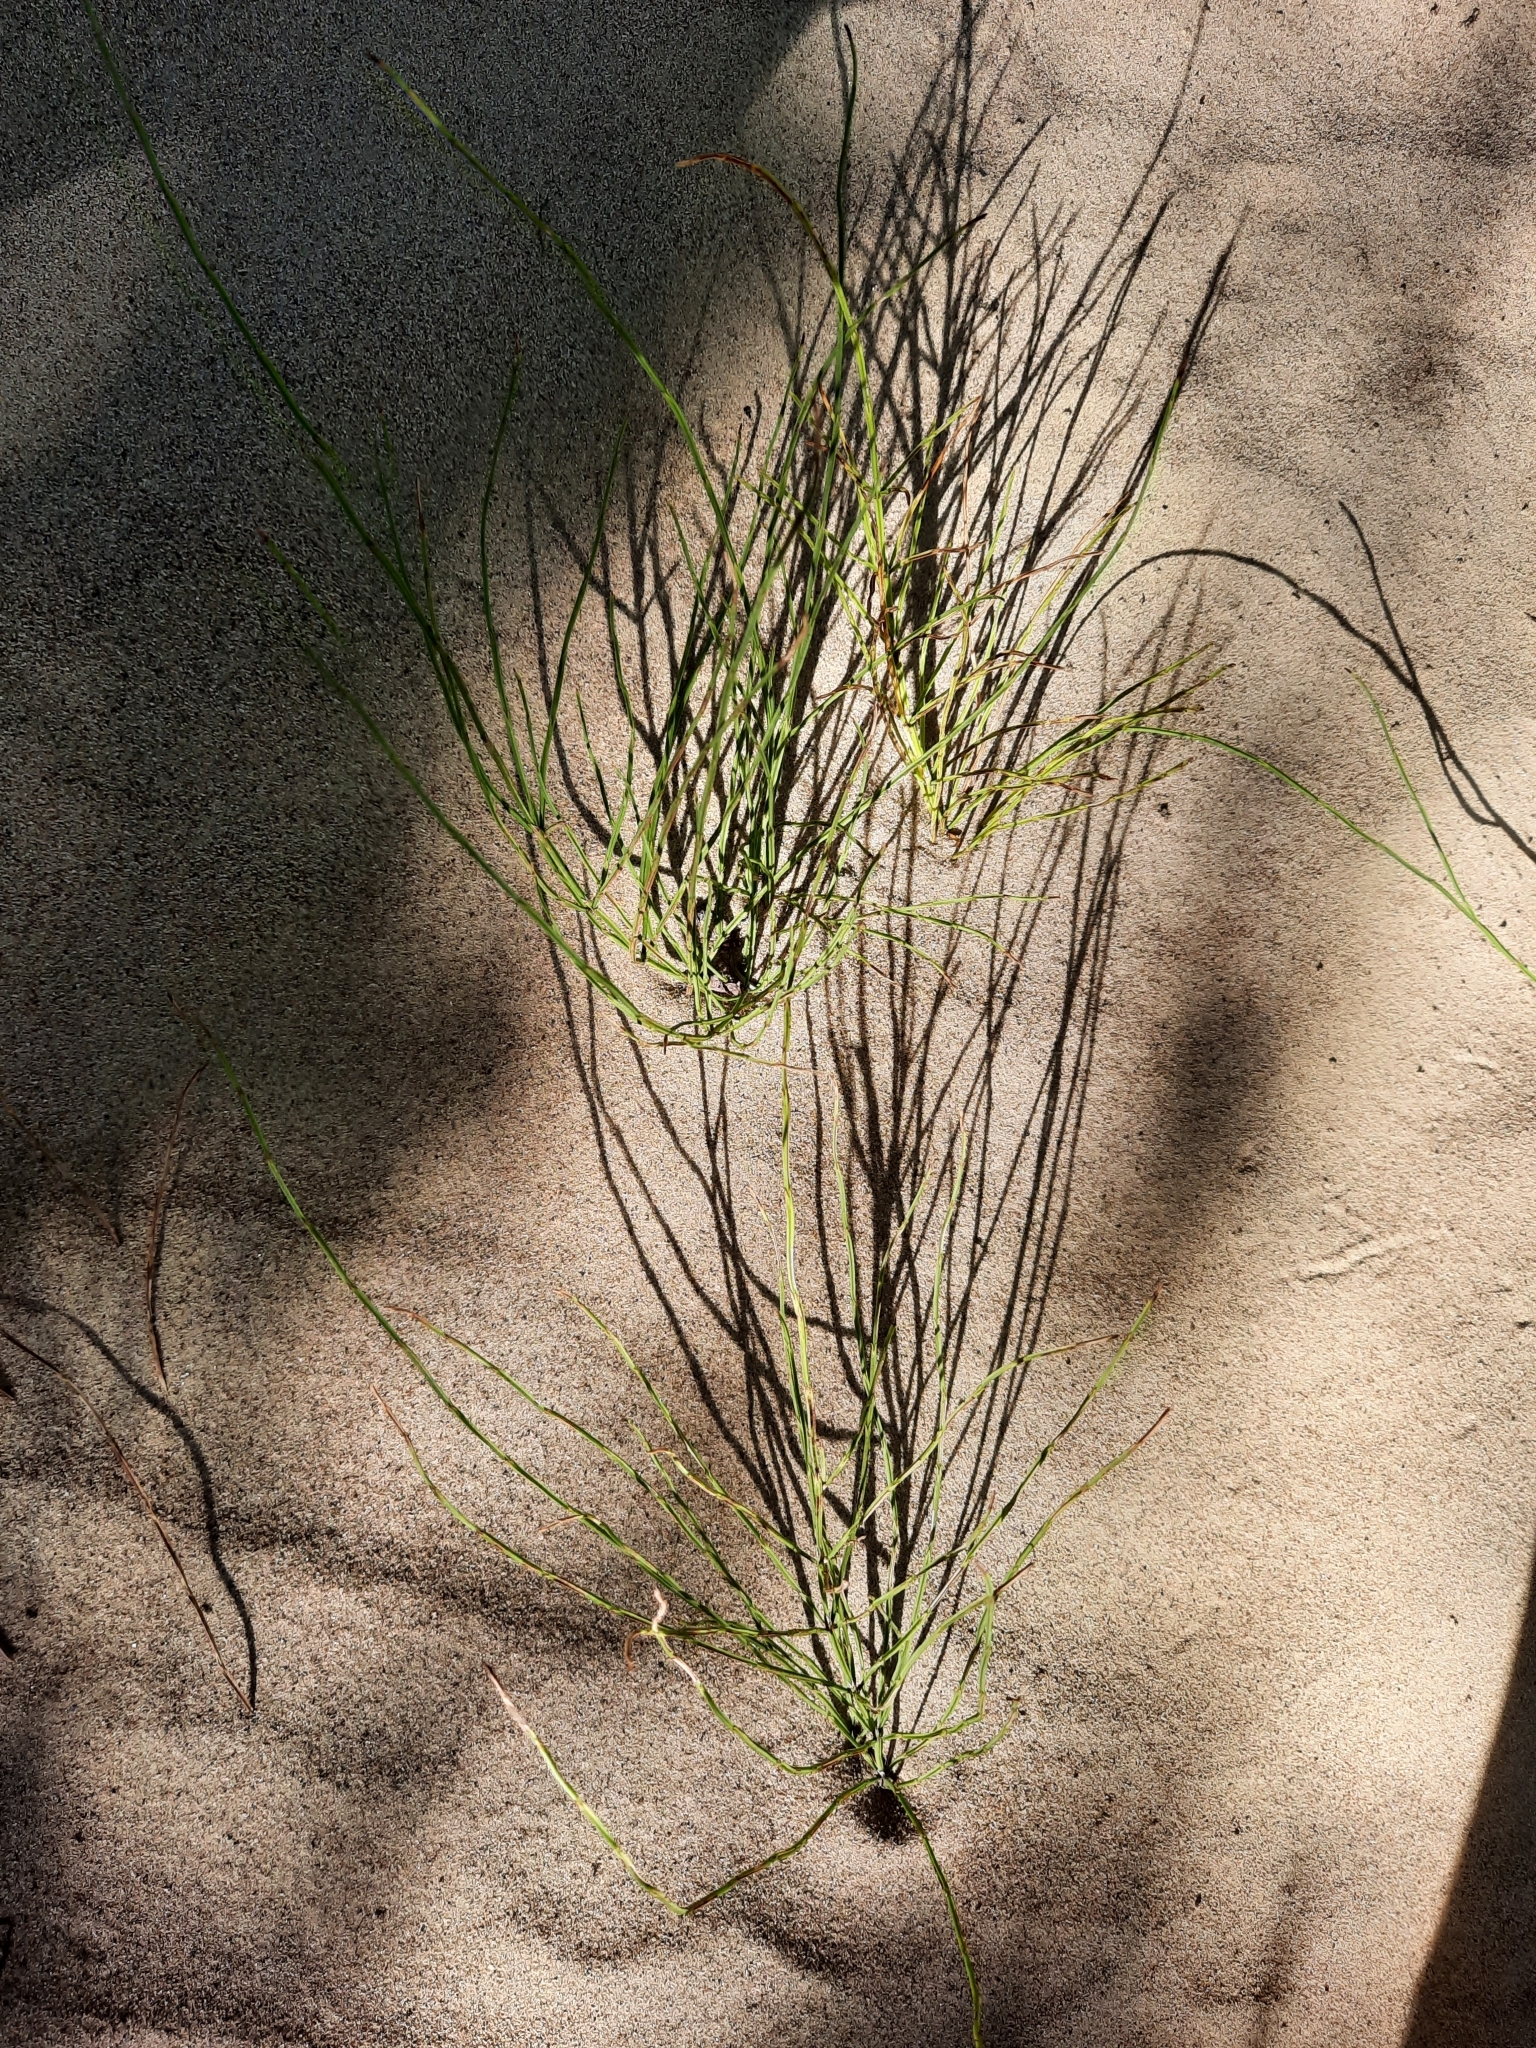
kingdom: Plantae
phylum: Tracheophyta
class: Polypodiopsida
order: Equisetales
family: Equisetaceae
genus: Equisetum
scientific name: Equisetum arvense
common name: Field horsetail
